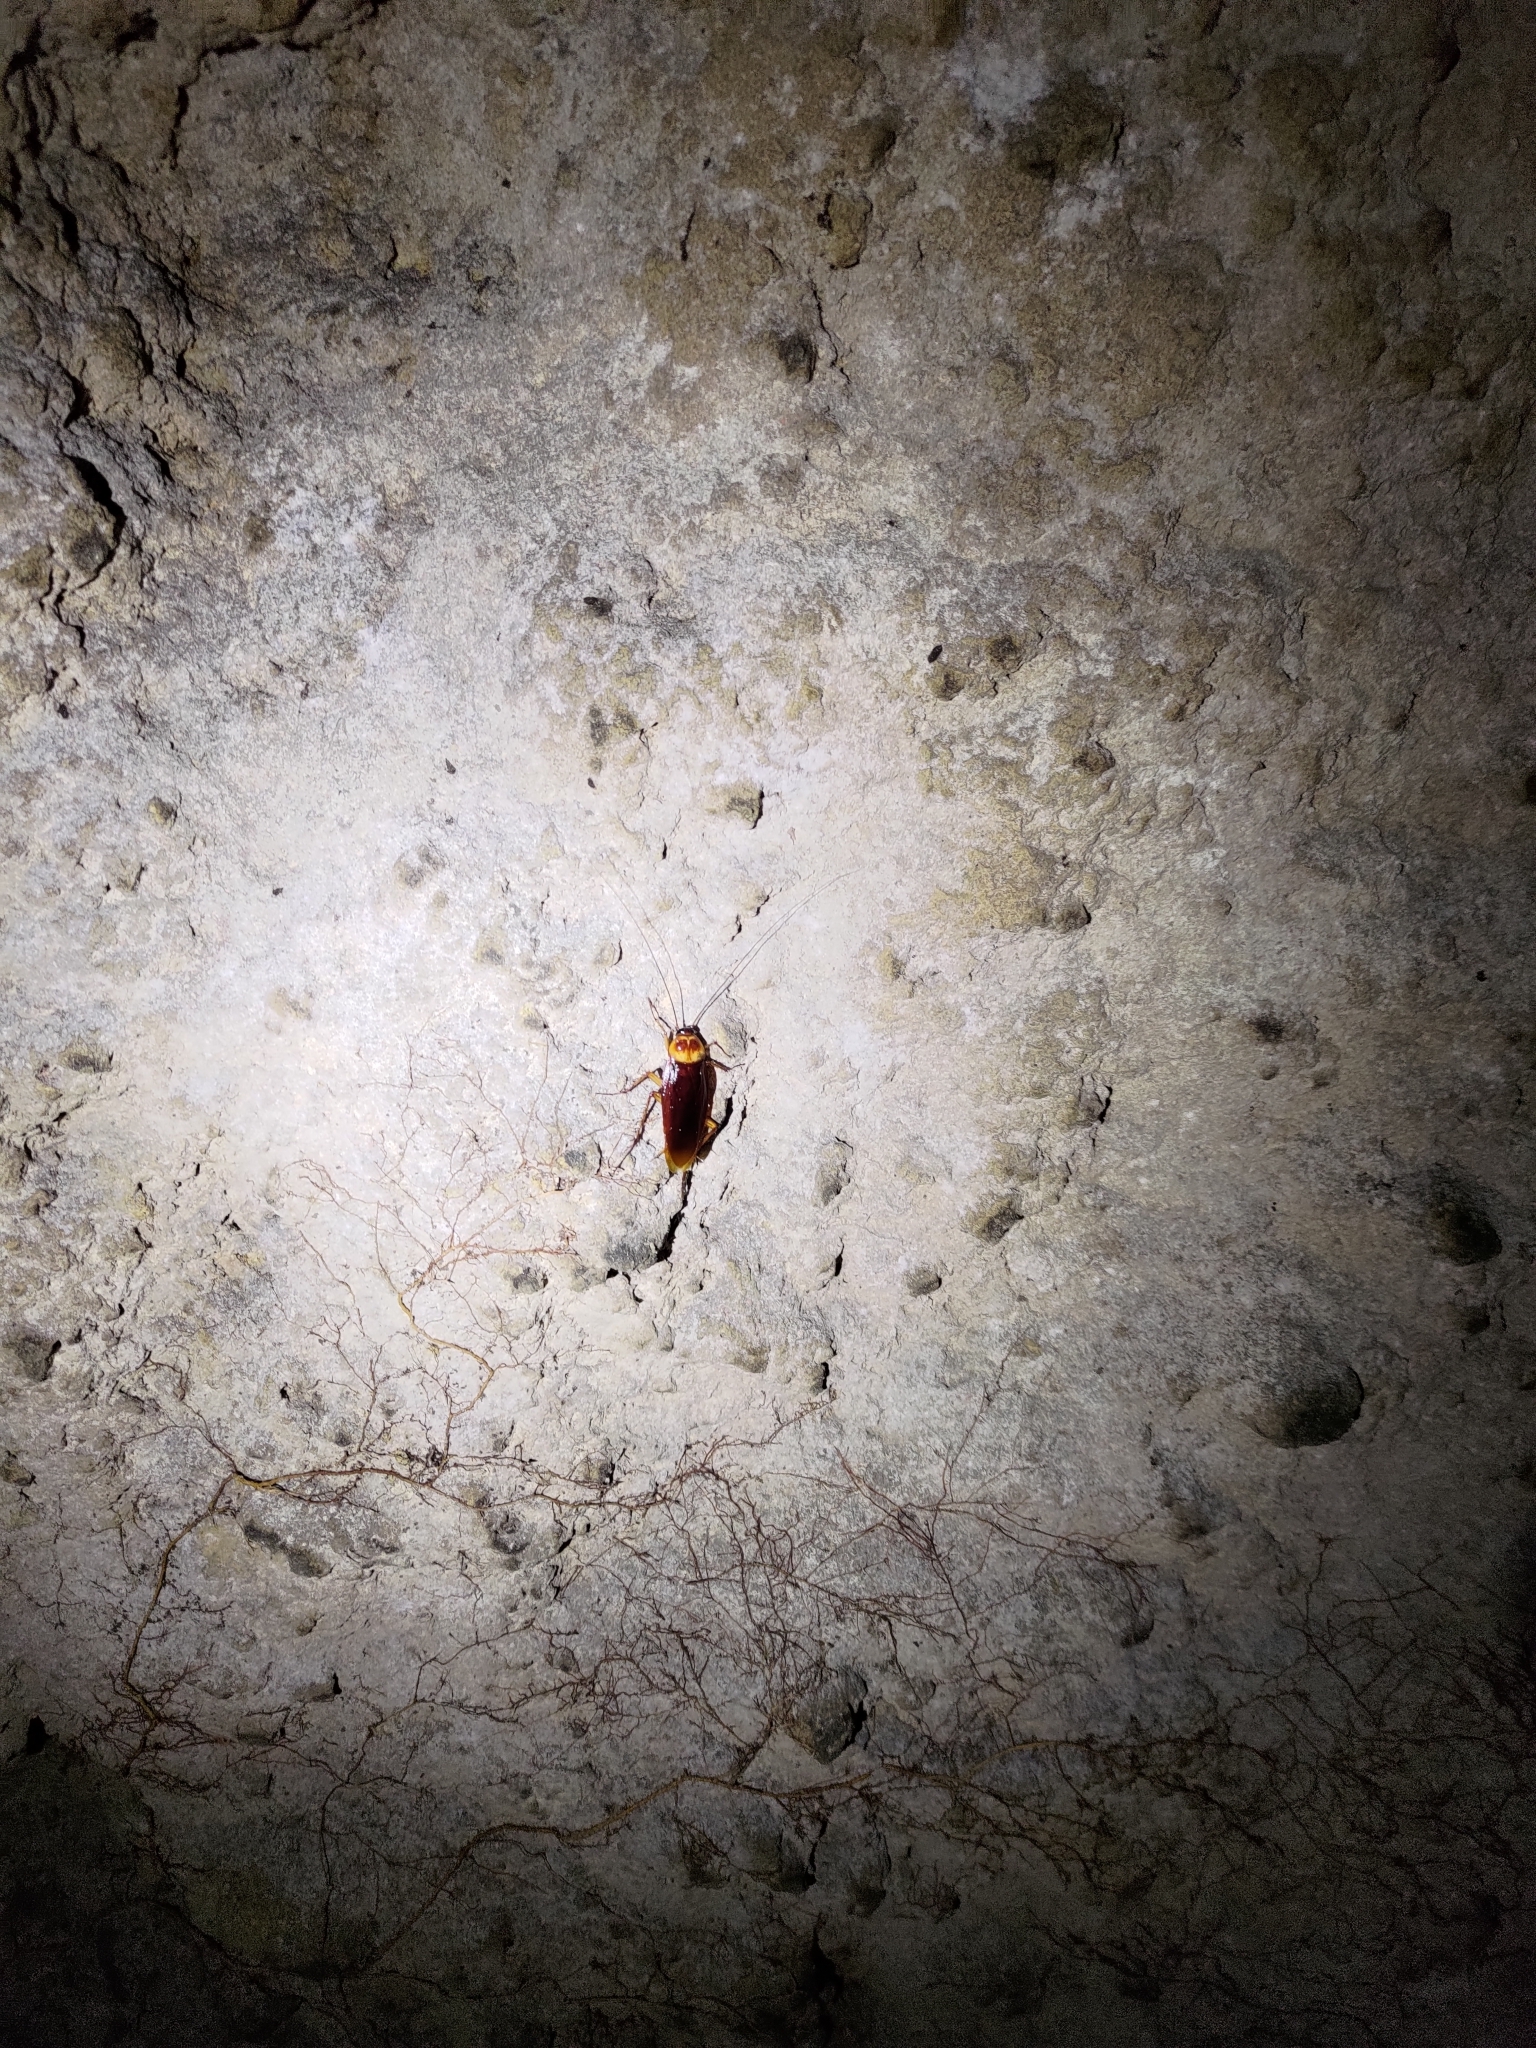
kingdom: Animalia
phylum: Arthropoda
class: Insecta
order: Blattodea
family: Blattidae
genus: Periplaneta
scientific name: Periplaneta americana
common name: American cockroach
